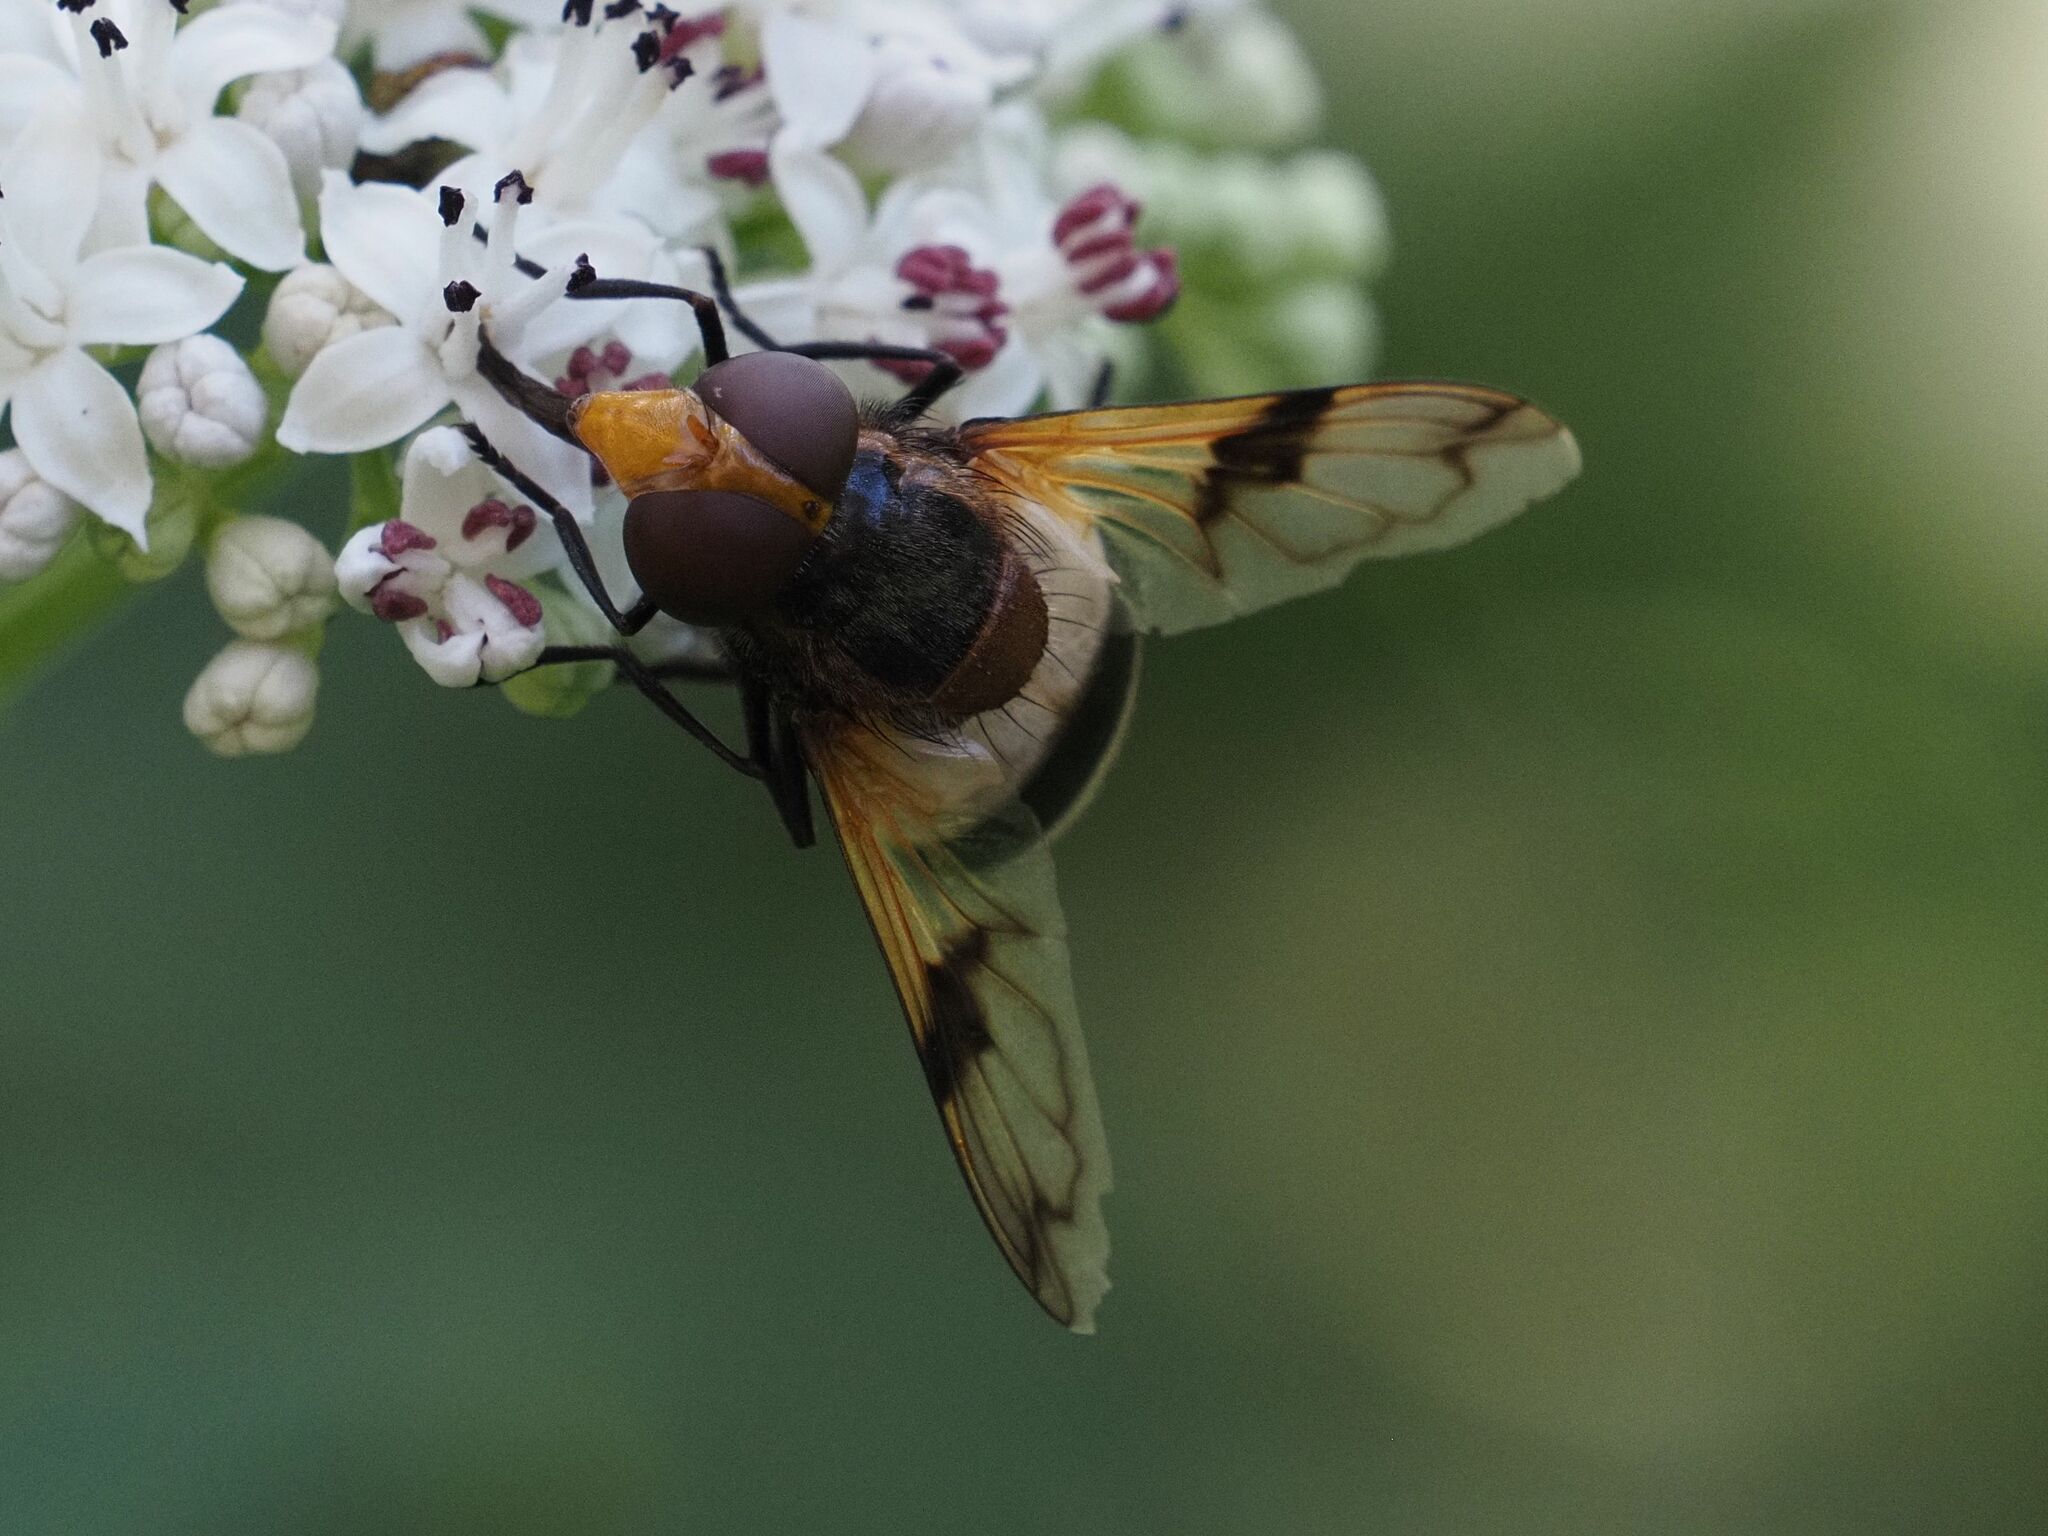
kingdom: Animalia
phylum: Arthropoda
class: Insecta
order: Diptera
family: Syrphidae
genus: Volucella
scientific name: Volucella pellucens
